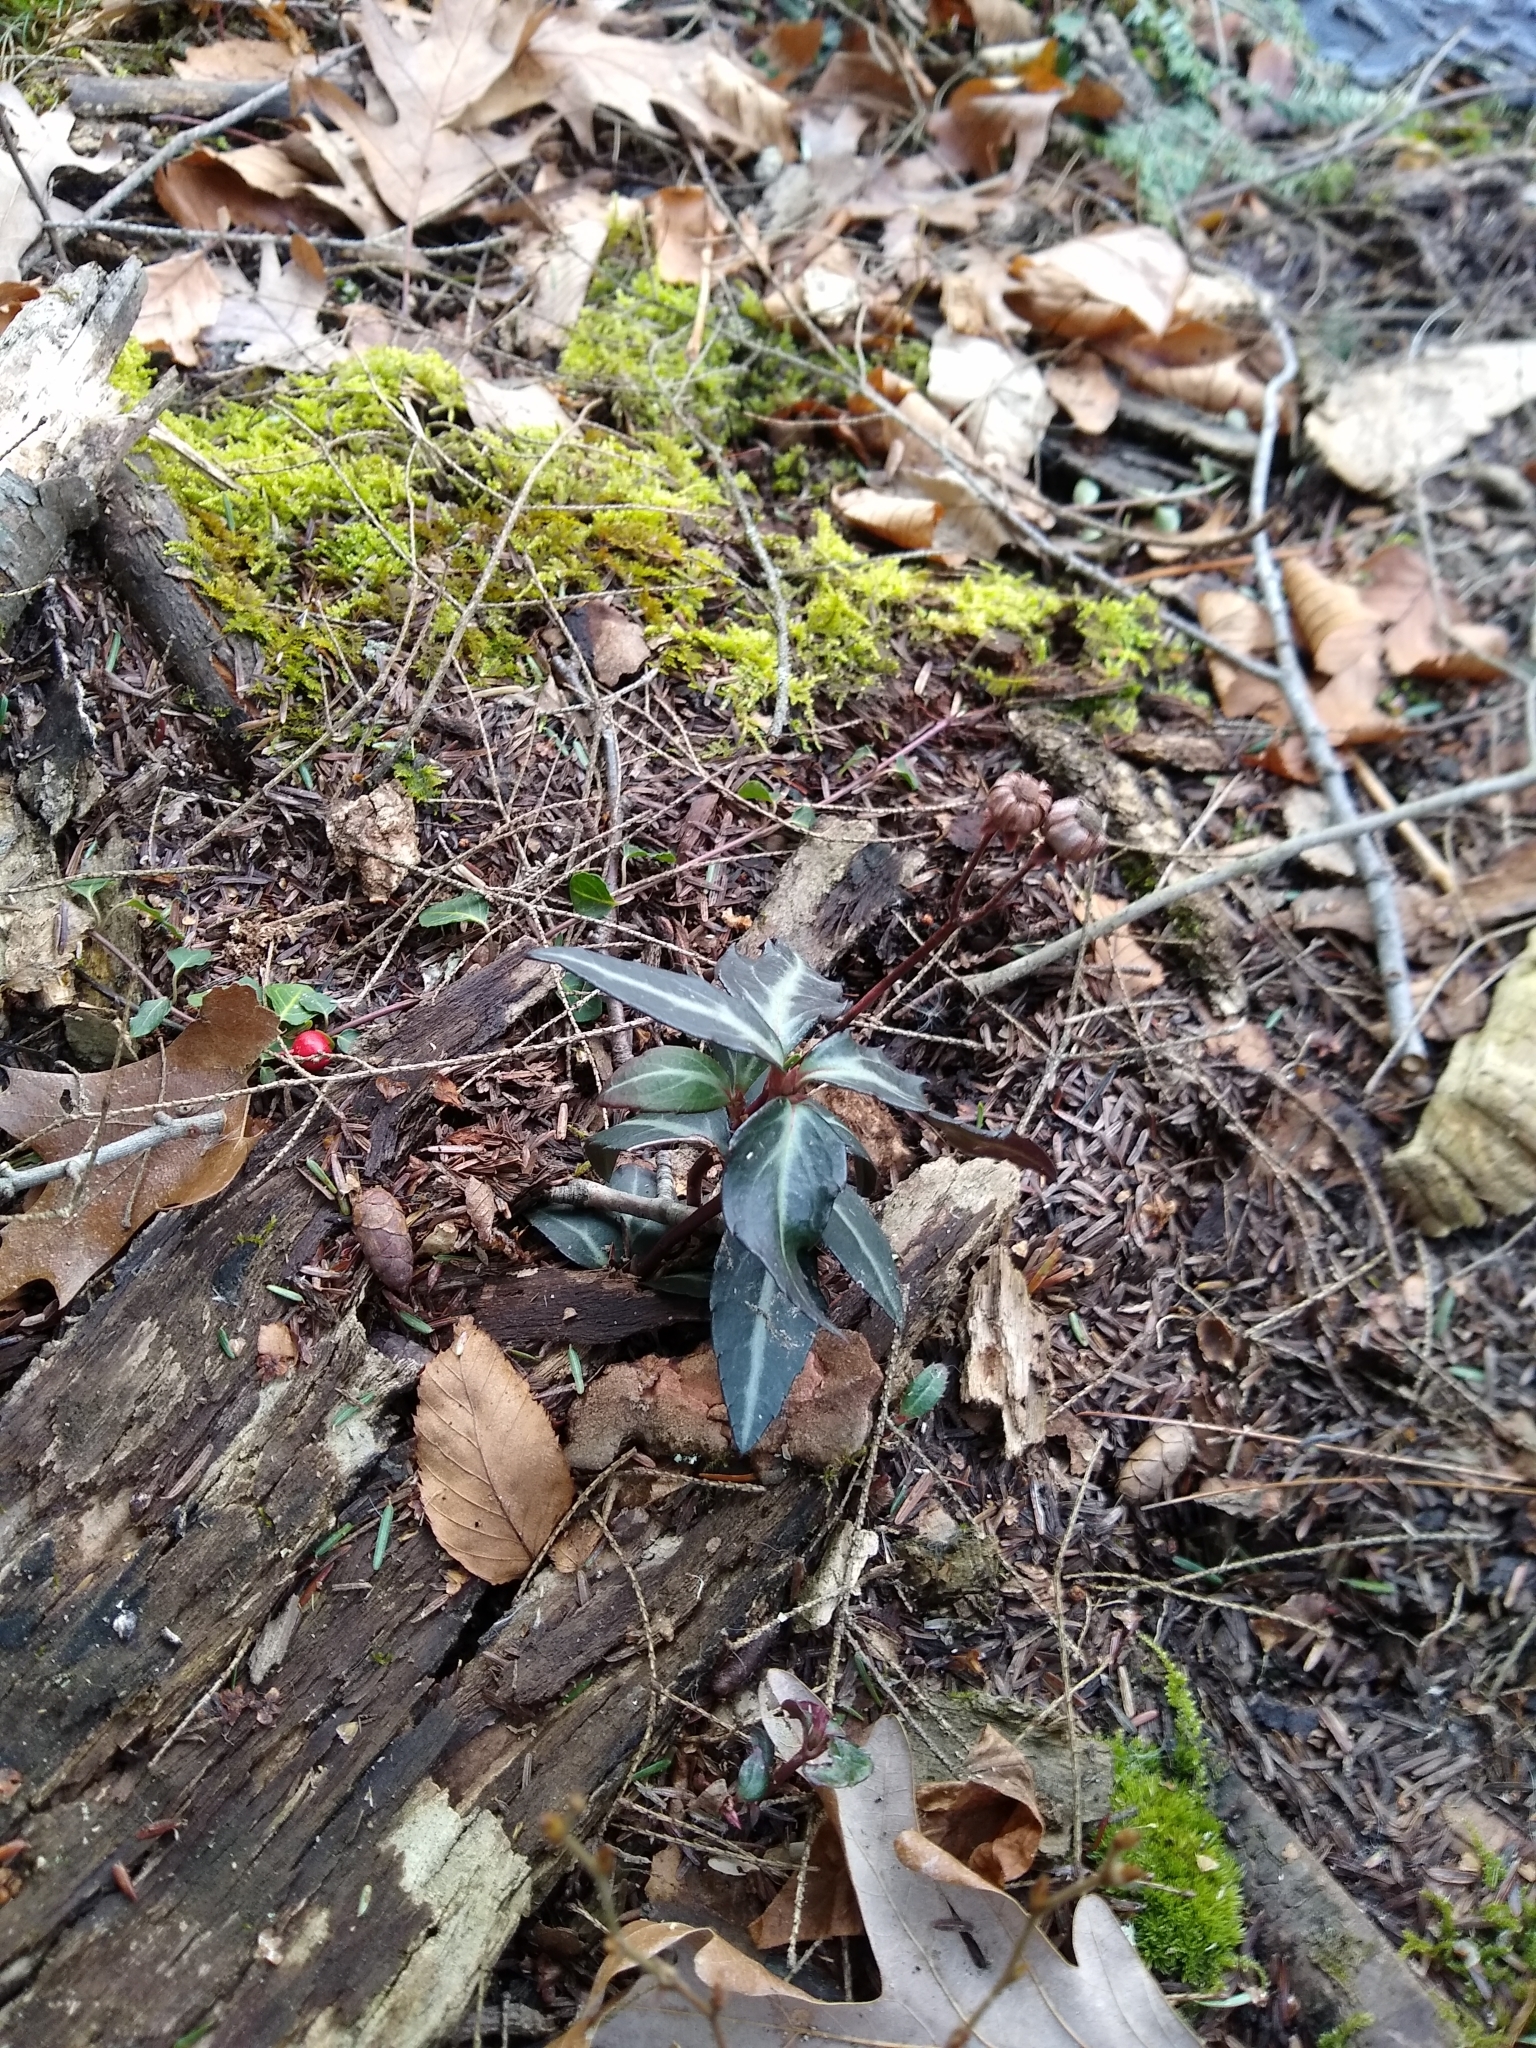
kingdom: Plantae
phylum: Tracheophyta
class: Magnoliopsida
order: Ericales
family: Ericaceae
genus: Chimaphila
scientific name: Chimaphila maculata
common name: Spotted pipsissewa
